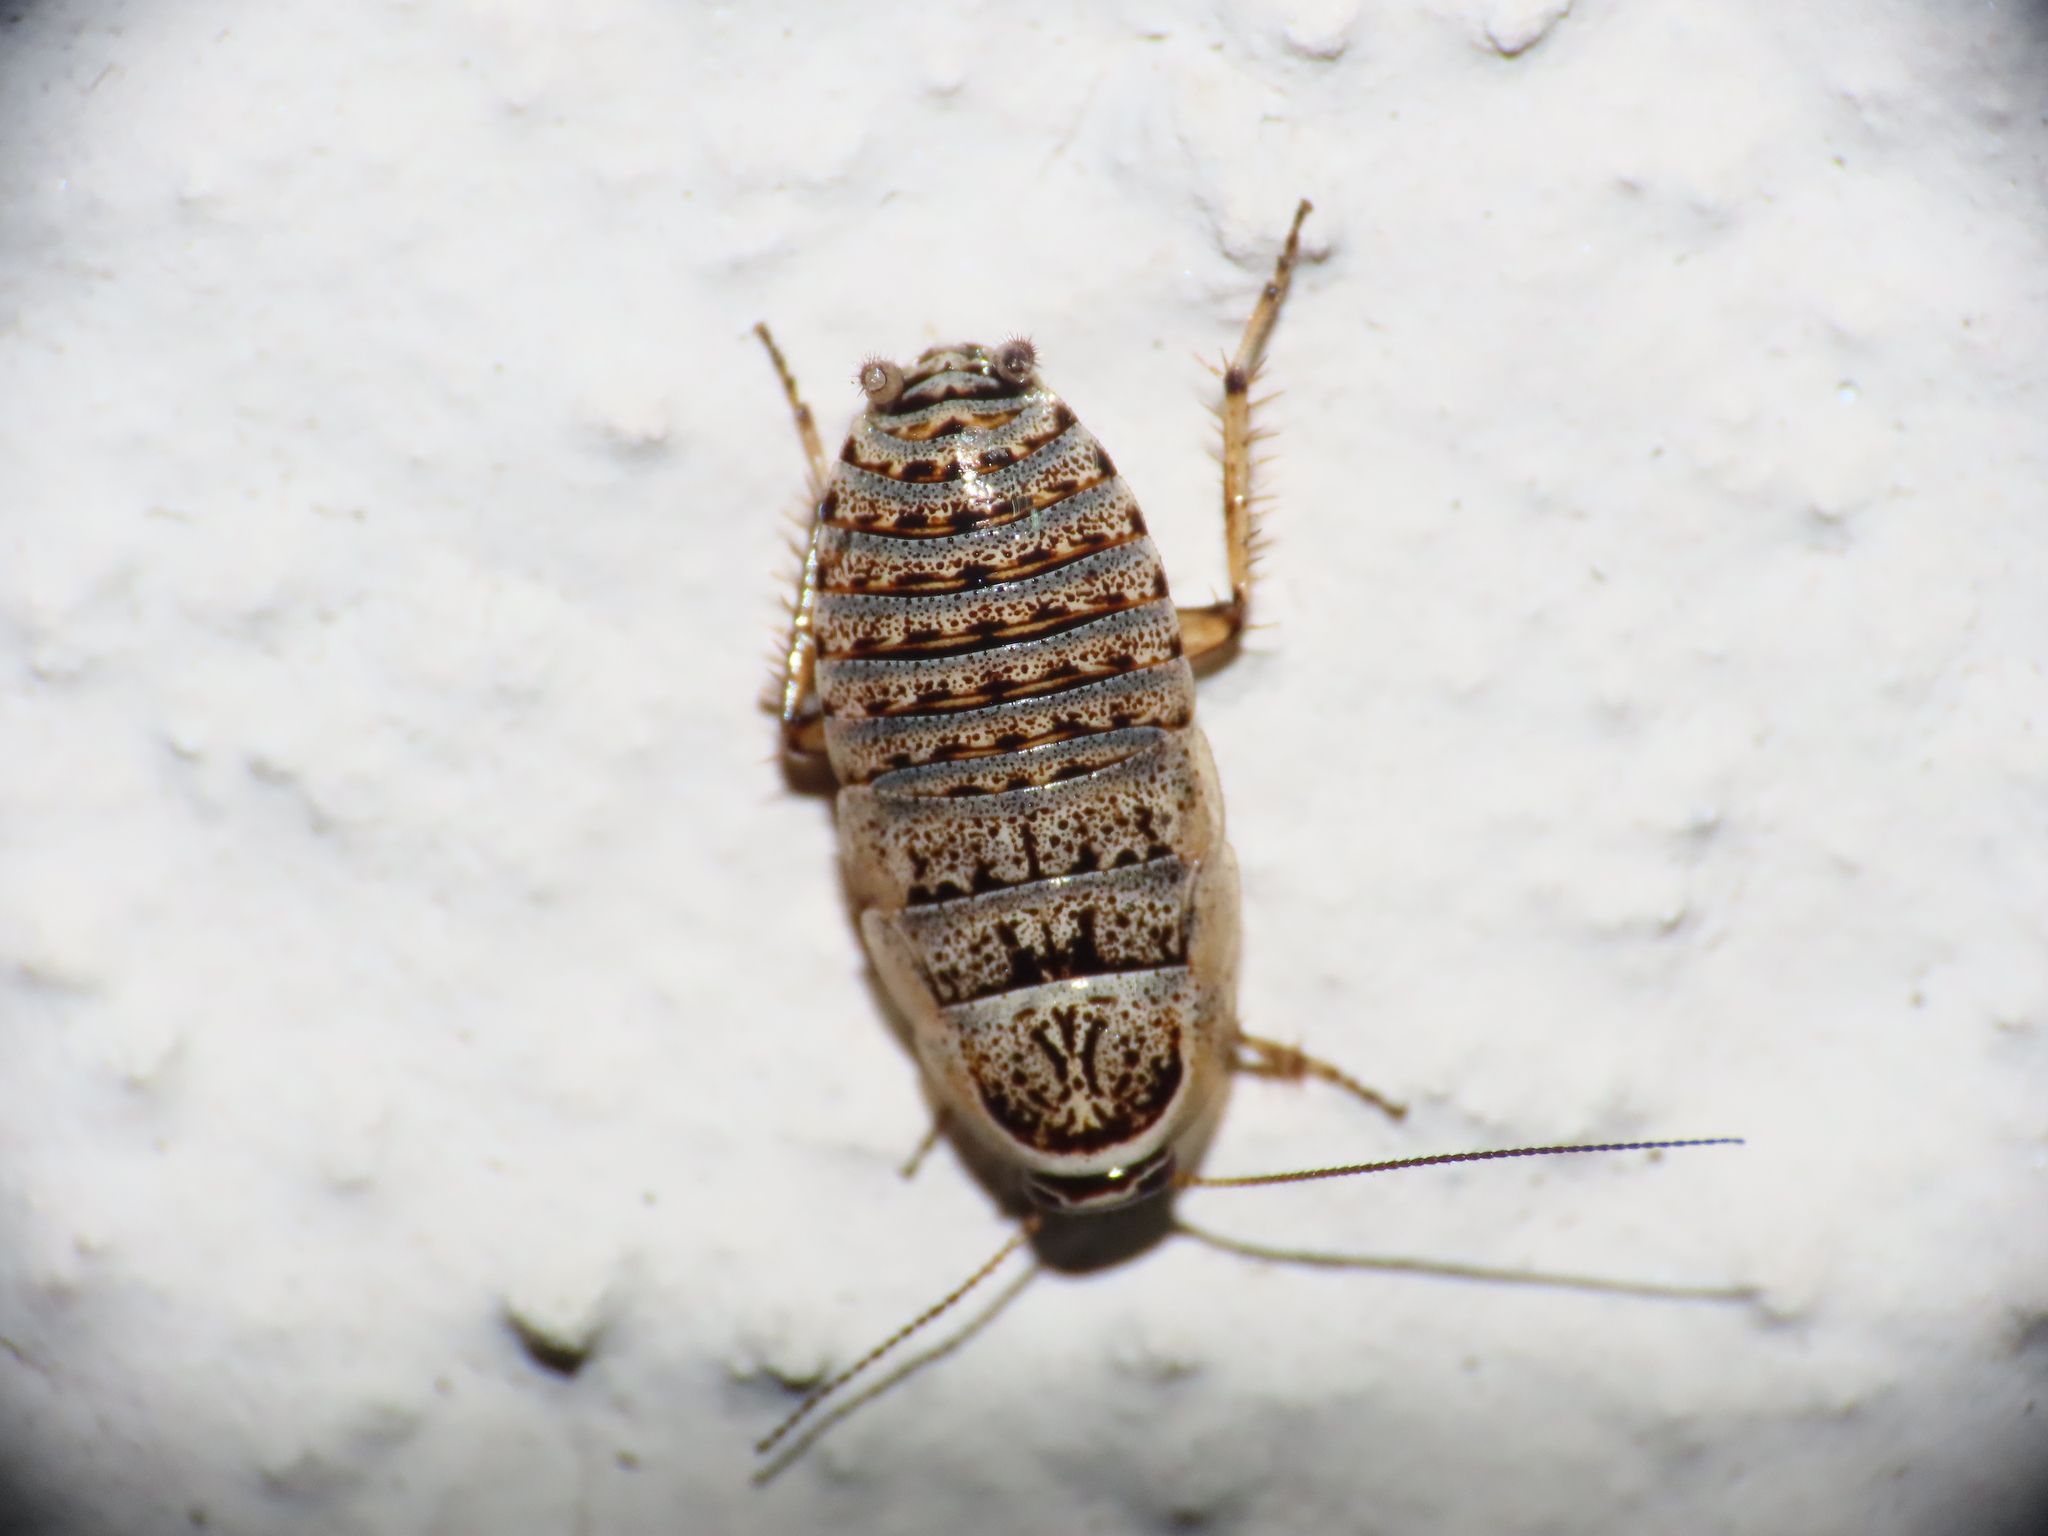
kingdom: Animalia
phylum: Arthropoda
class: Insecta
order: Blattodea
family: Ectobiidae
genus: Phyllodromica
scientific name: Phyllodromica subaptera
